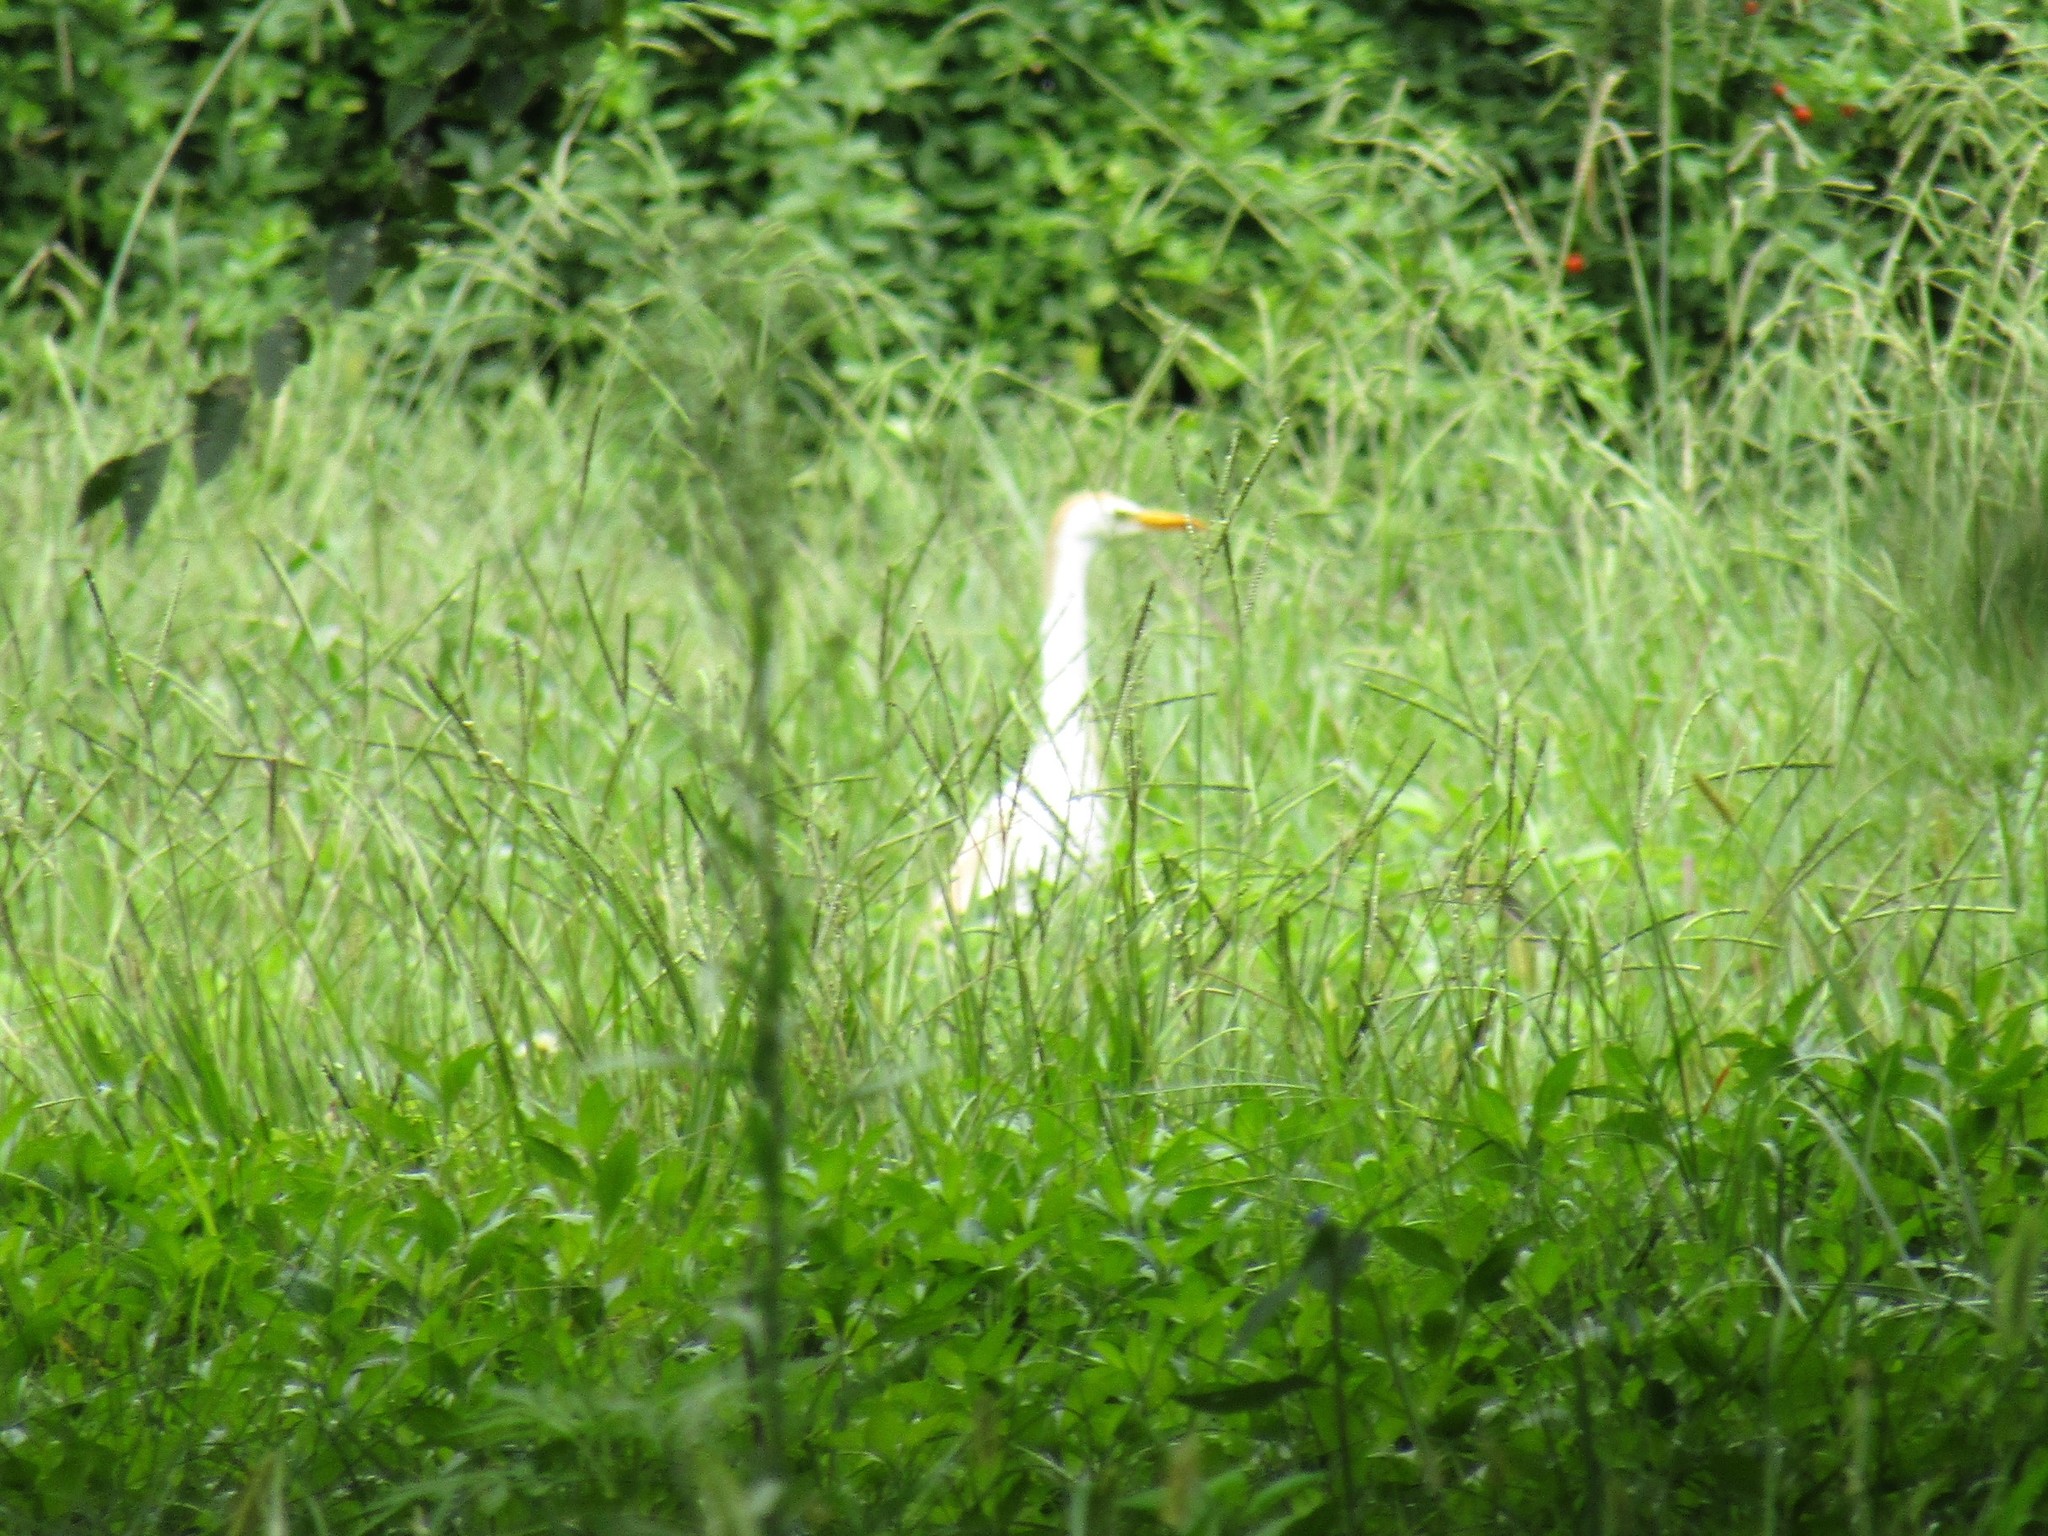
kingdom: Animalia
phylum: Chordata
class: Aves
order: Pelecaniformes
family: Ardeidae
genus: Bubulcus
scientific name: Bubulcus ibis
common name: Cattle egret
